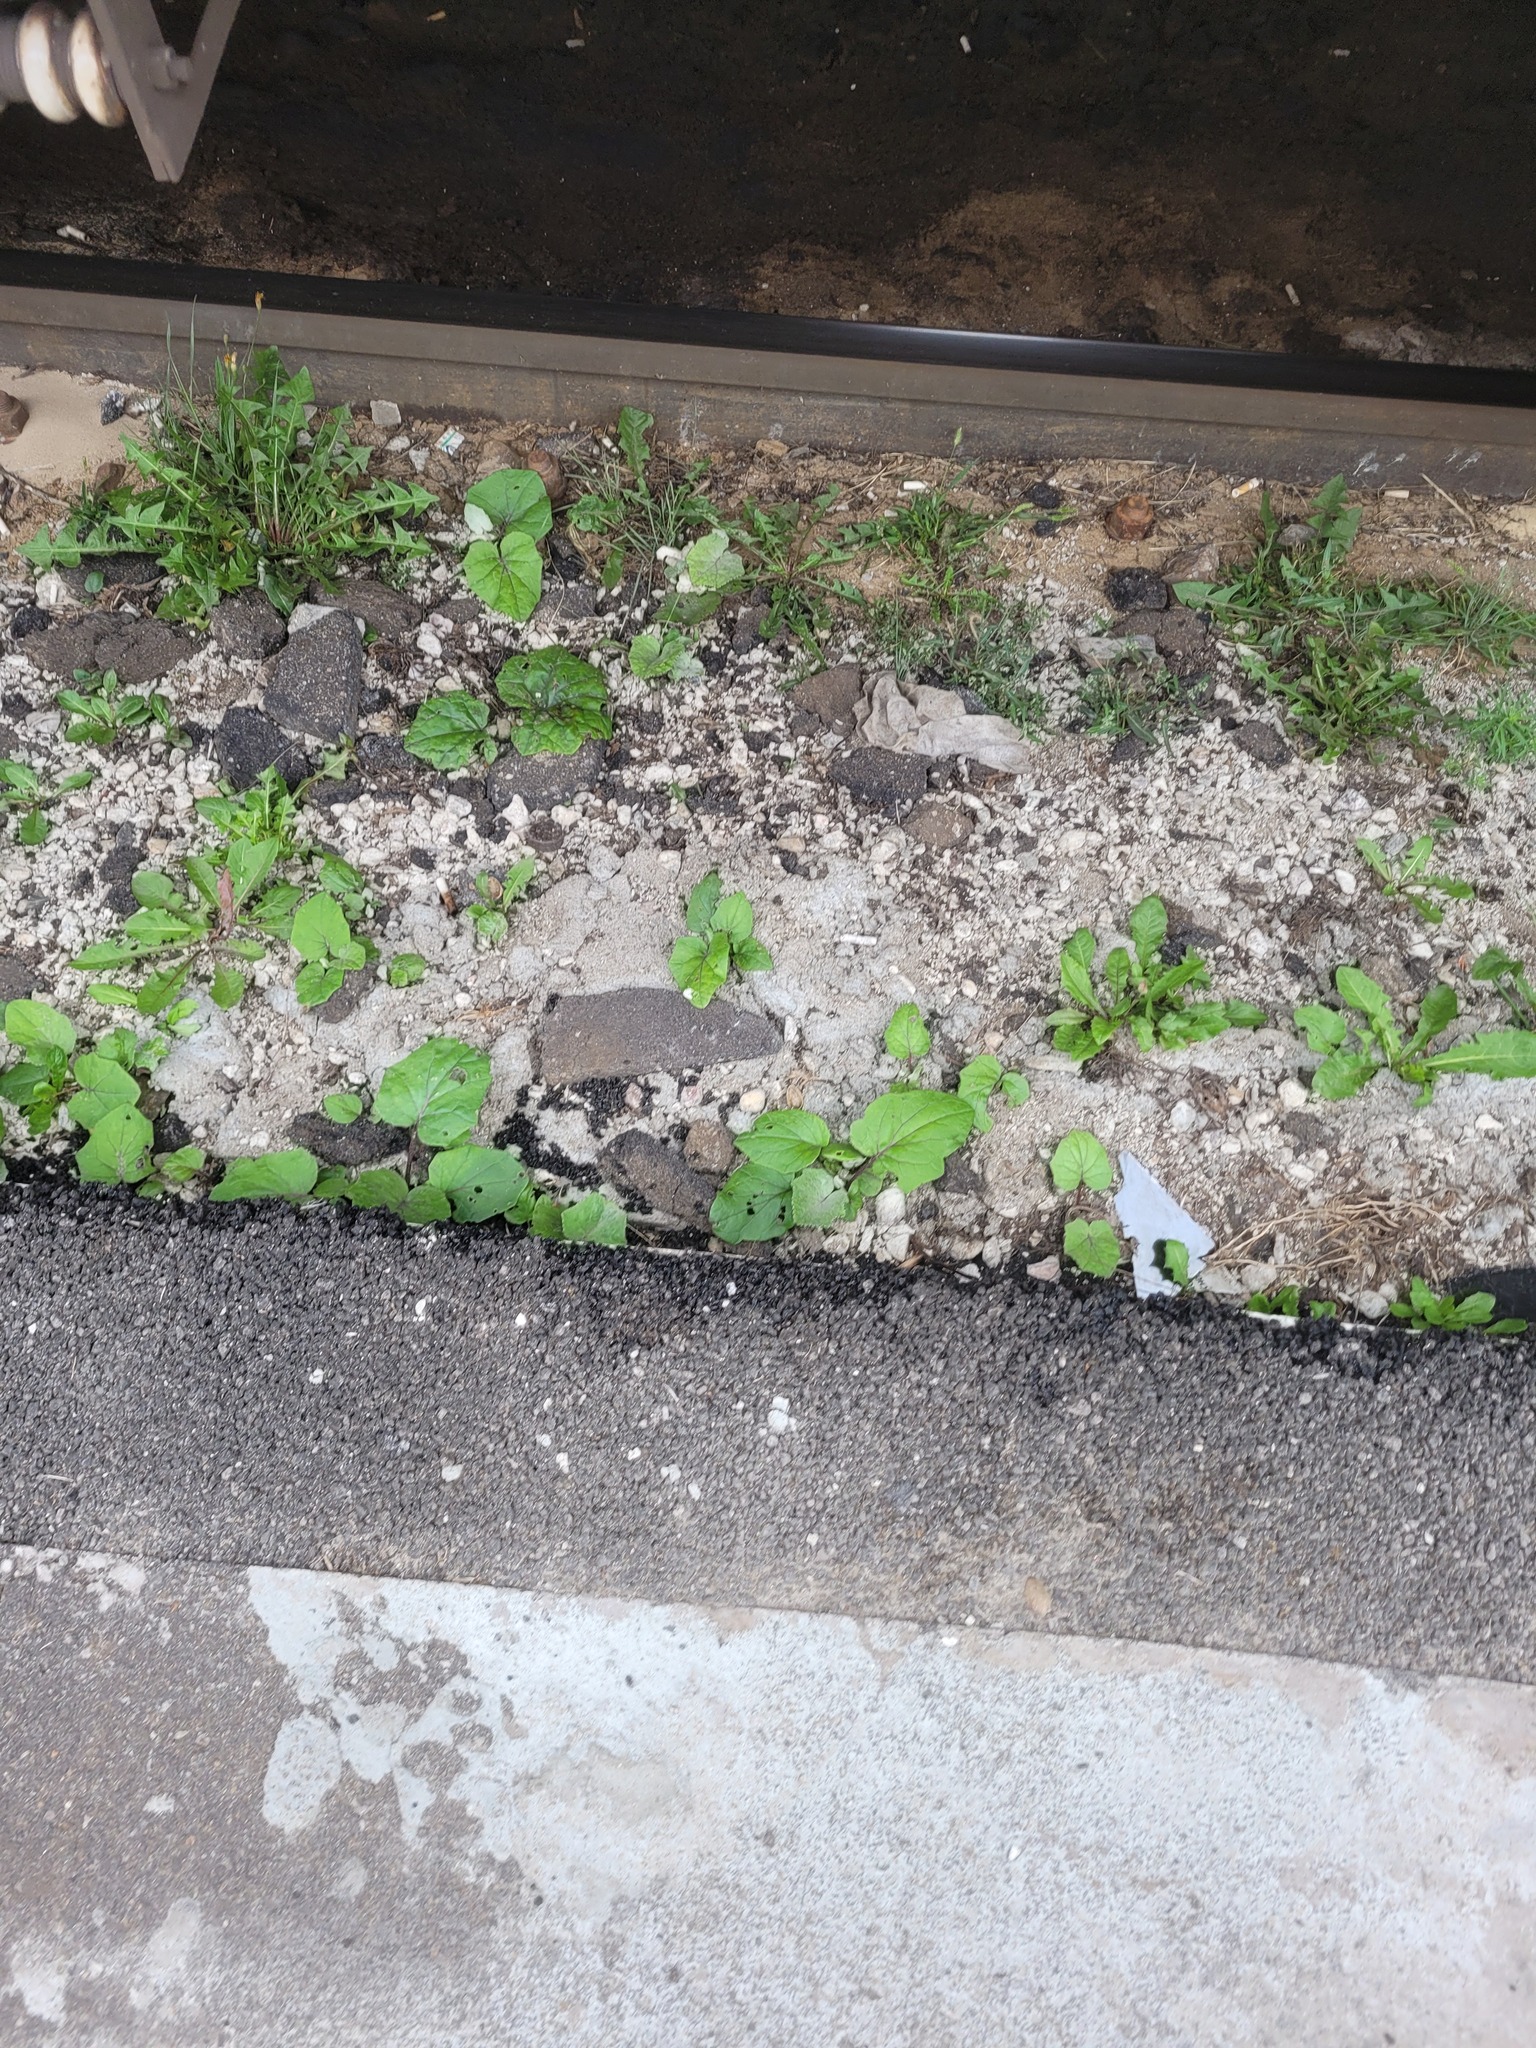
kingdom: Plantae
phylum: Tracheophyta
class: Magnoliopsida
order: Asterales
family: Asteraceae
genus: Tussilago
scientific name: Tussilago farfara
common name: Coltsfoot
